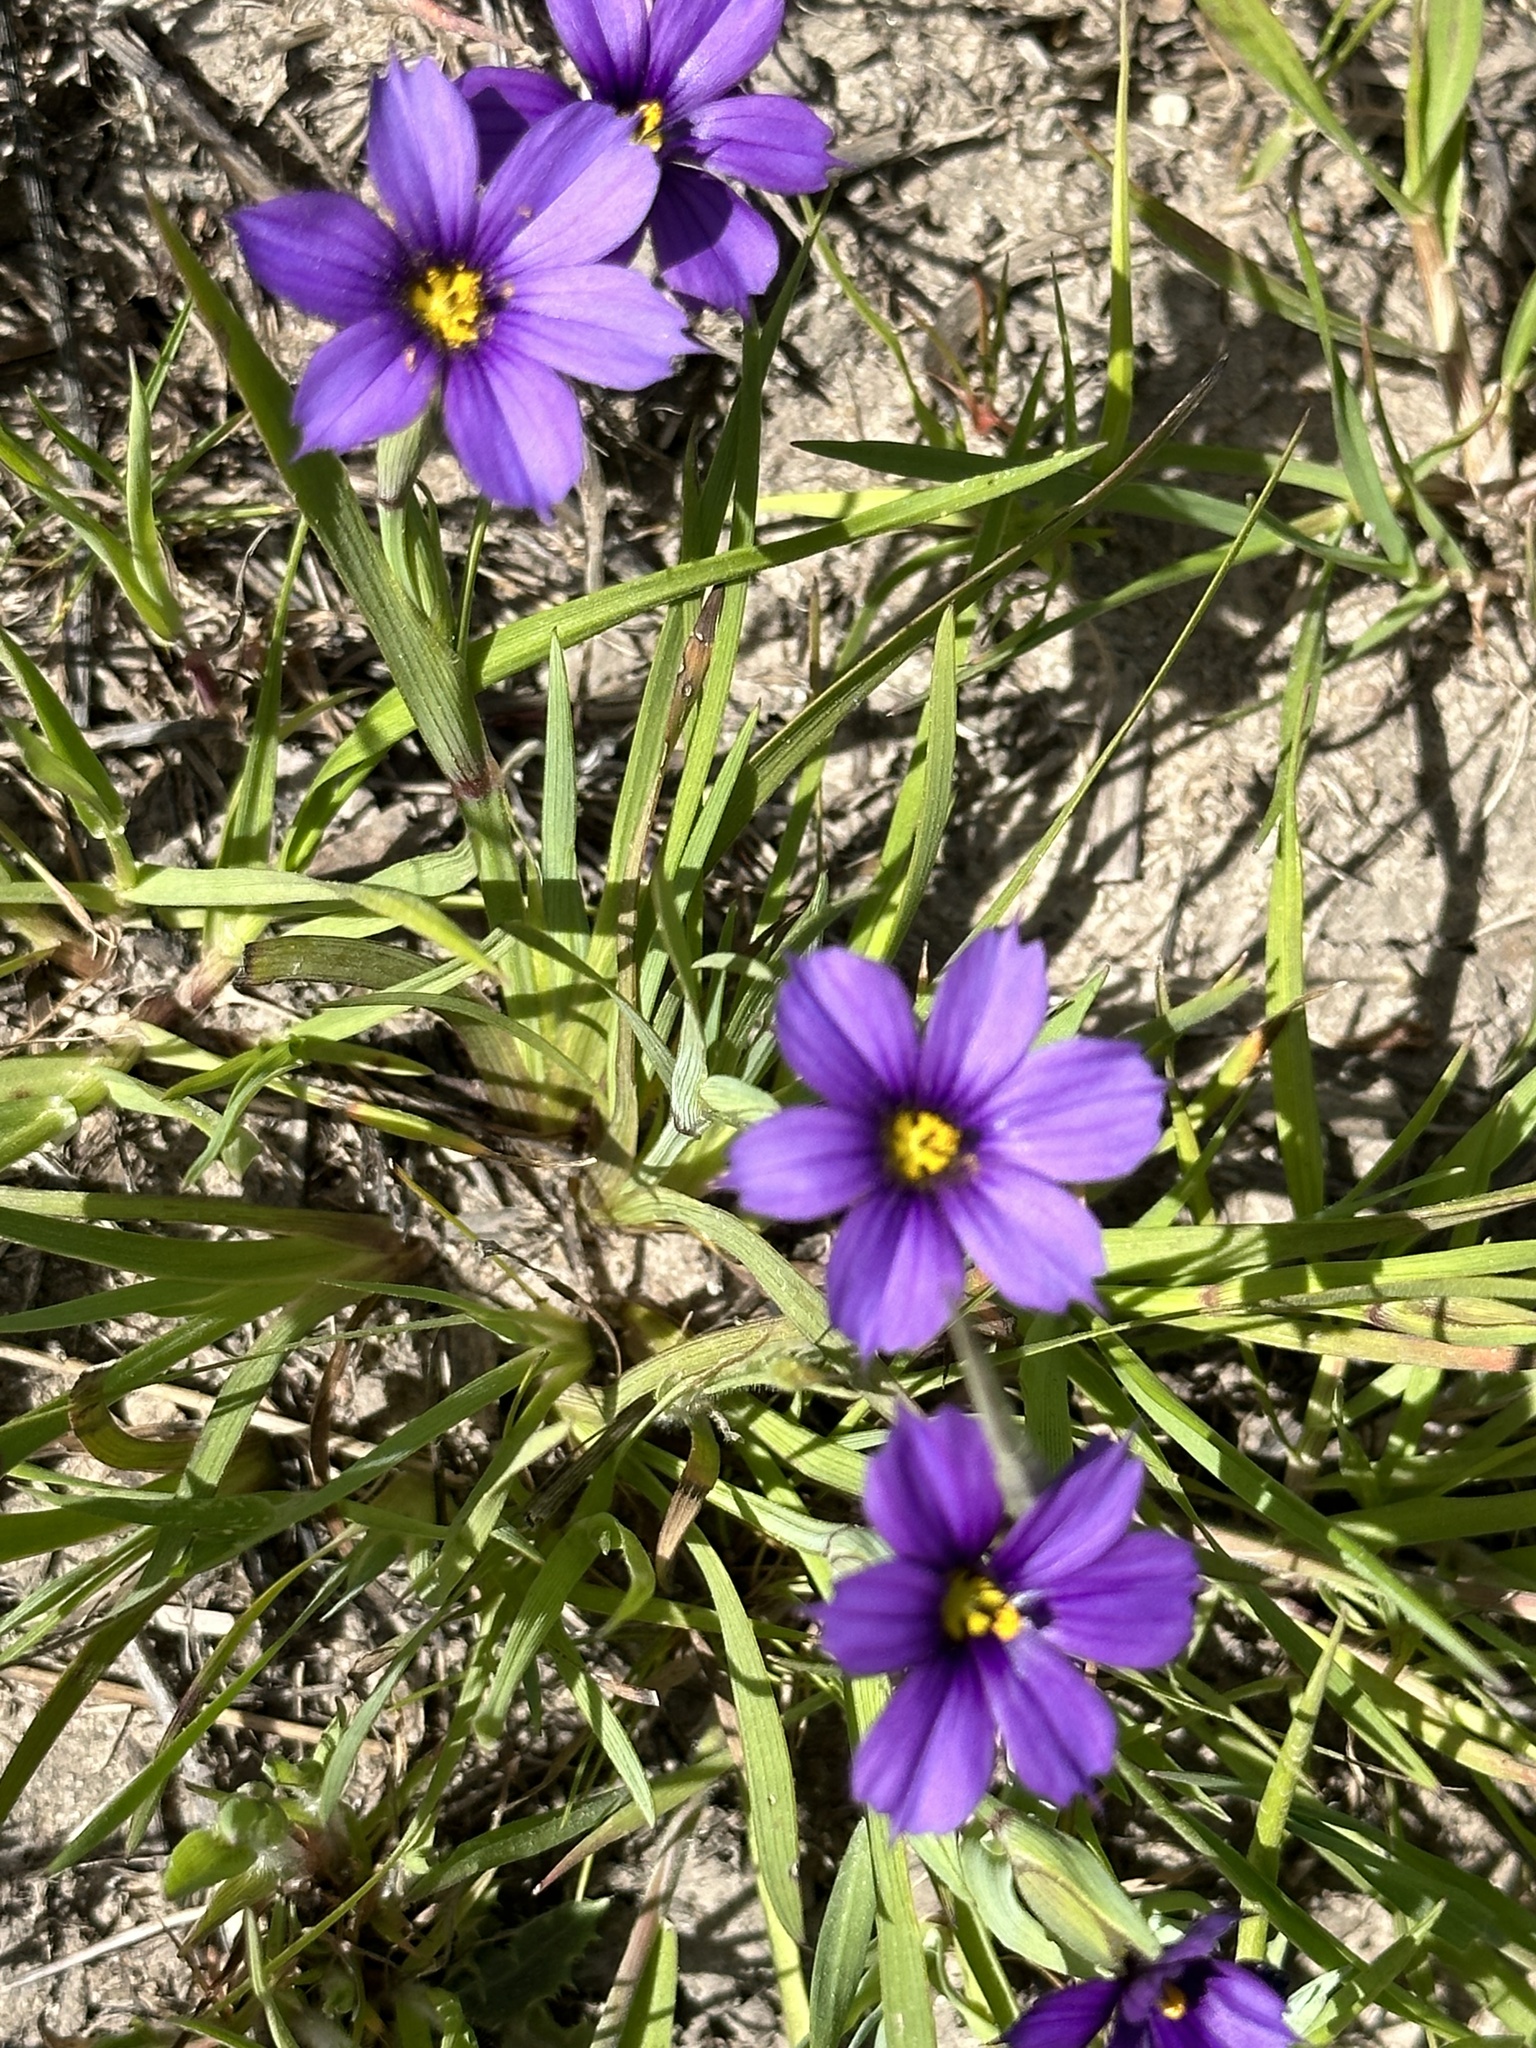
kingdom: Plantae
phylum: Tracheophyta
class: Liliopsida
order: Asparagales
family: Iridaceae
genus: Sisyrinchium
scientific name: Sisyrinchium bellum
